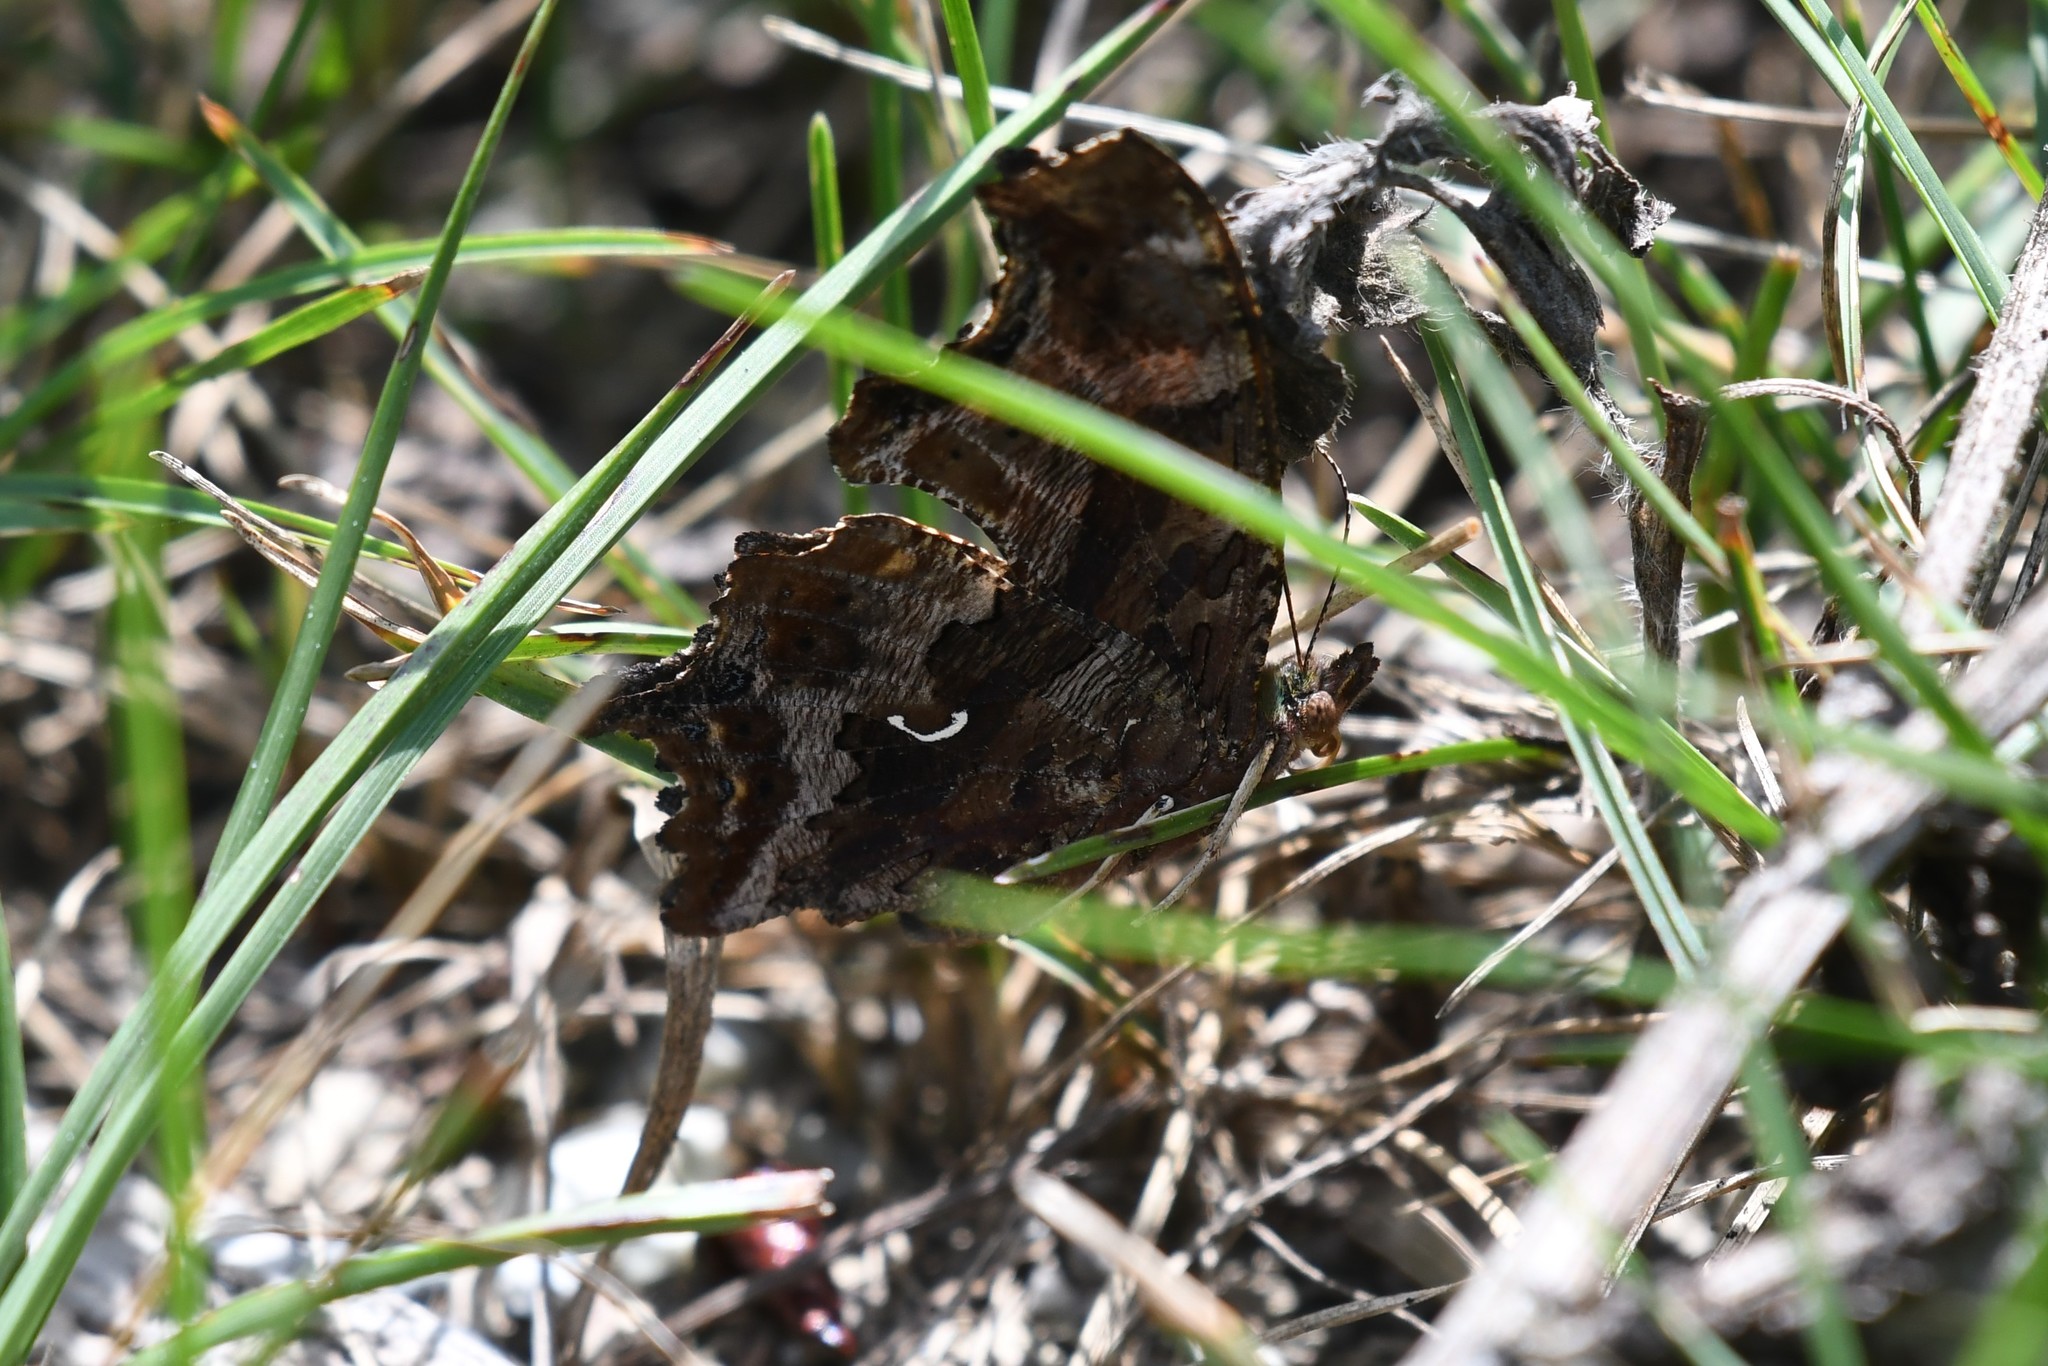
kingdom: Animalia
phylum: Arthropoda
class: Insecta
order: Lepidoptera
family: Nymphalidae
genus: Polygonia
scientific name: Polygonia comma
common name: Eastern comma
